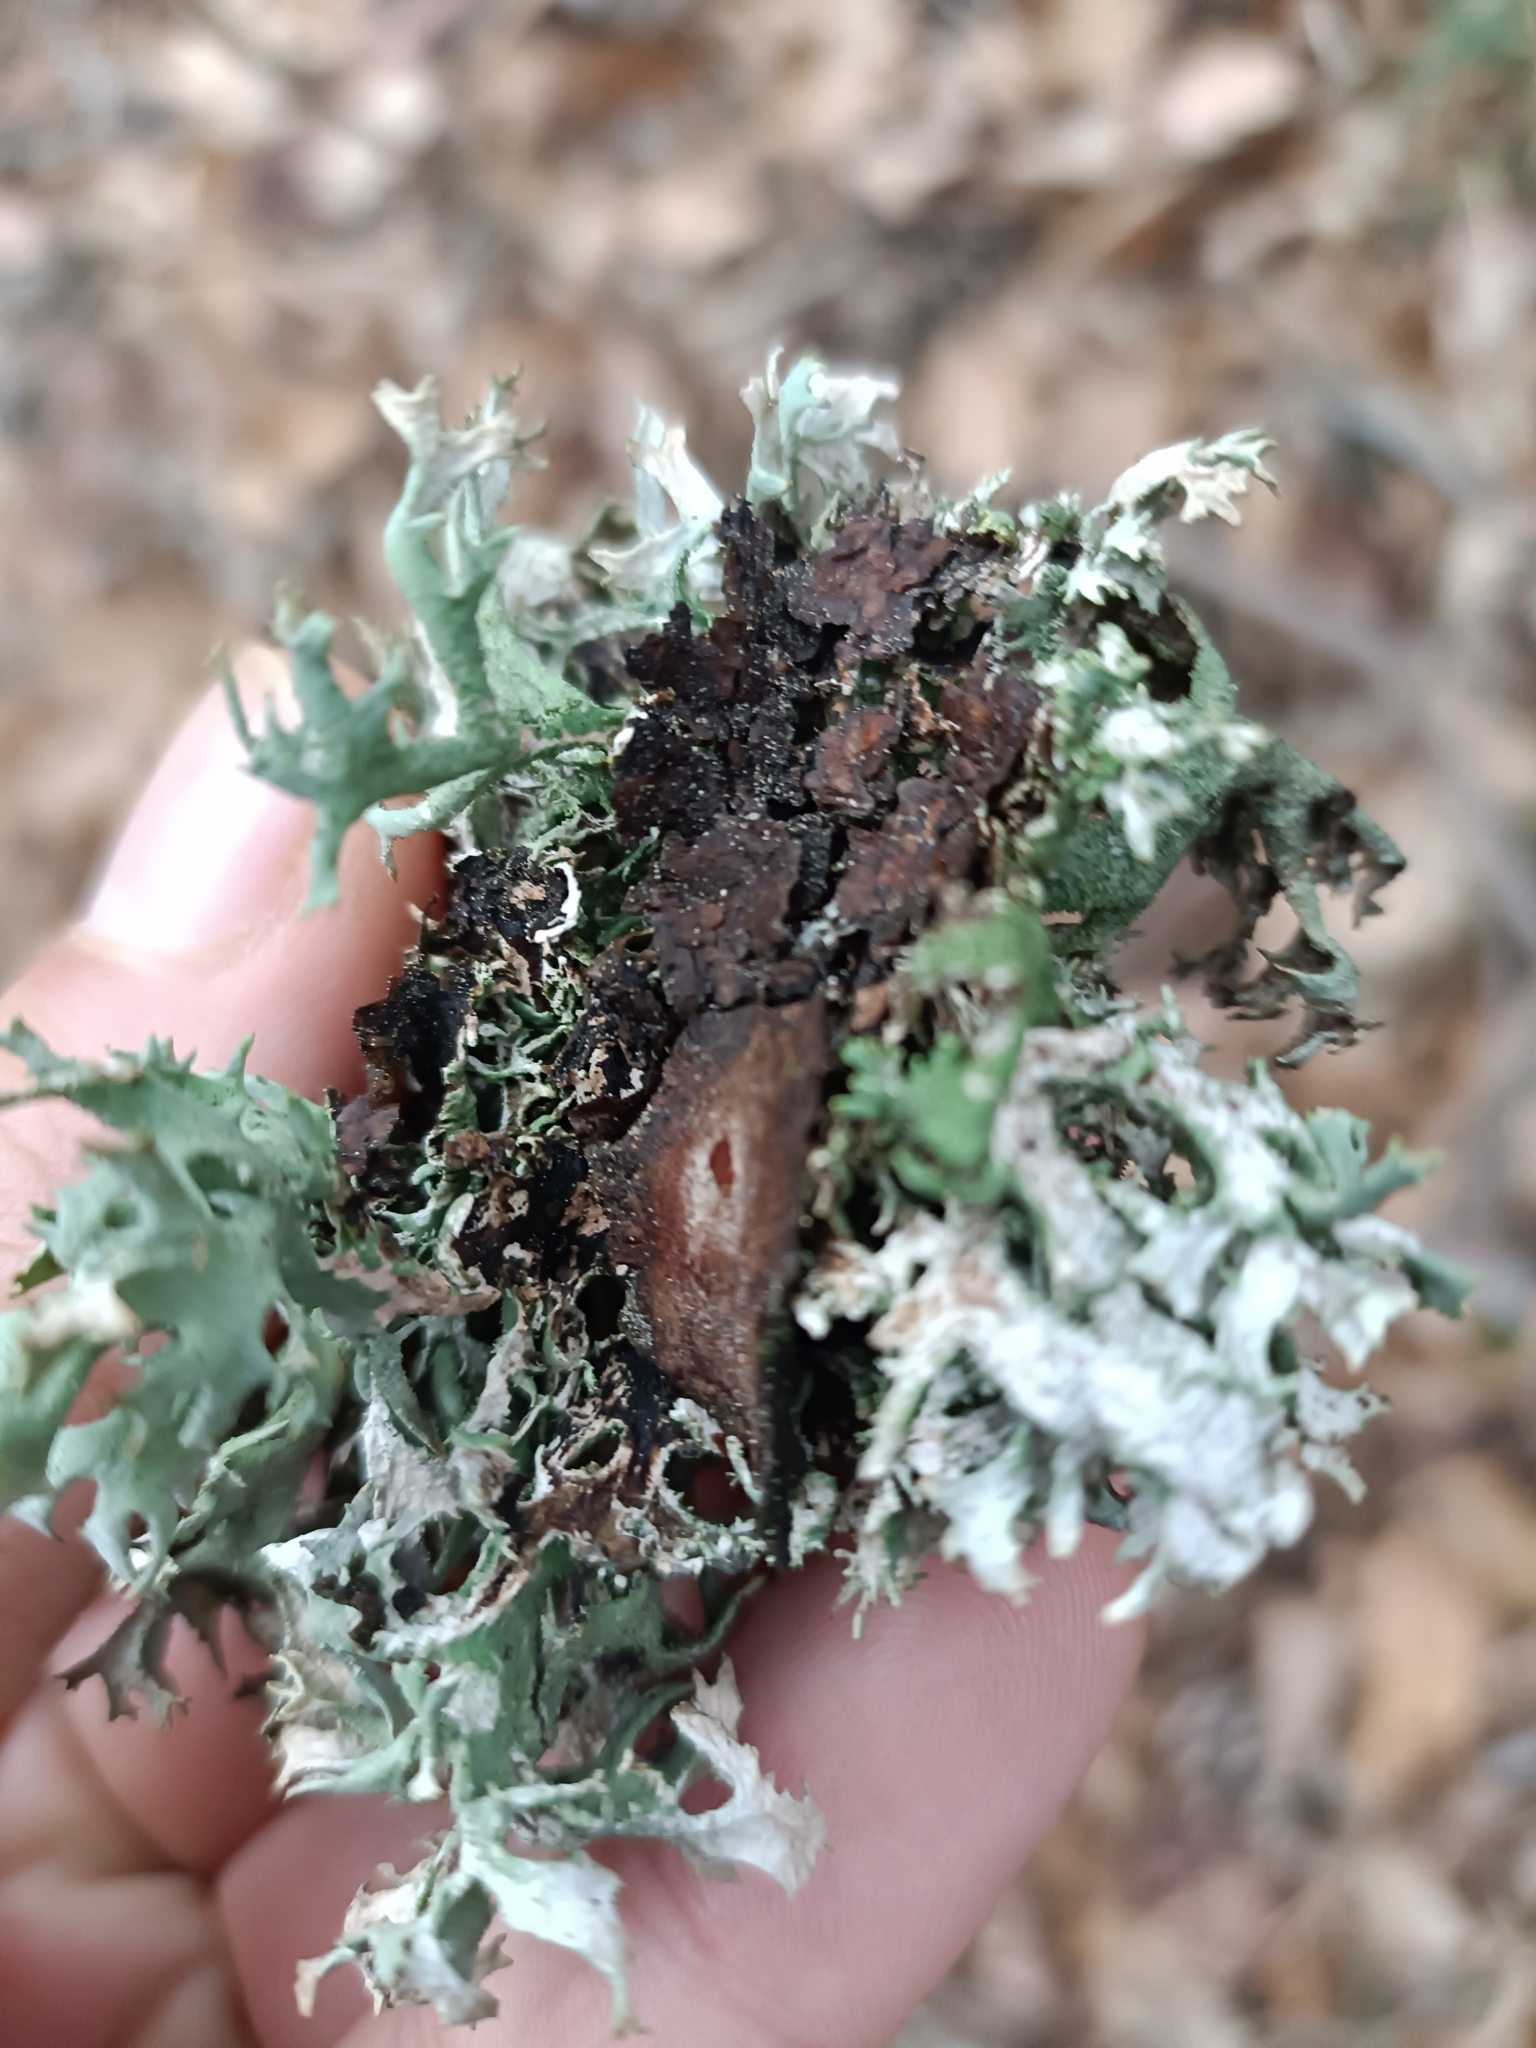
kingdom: Fungi
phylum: Ascomycota
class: Lecanoromycetes
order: Lecanorales
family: Parmeliaceae
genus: Pseudevernia
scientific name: Pseudevernia furfuracea
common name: Tree moss
